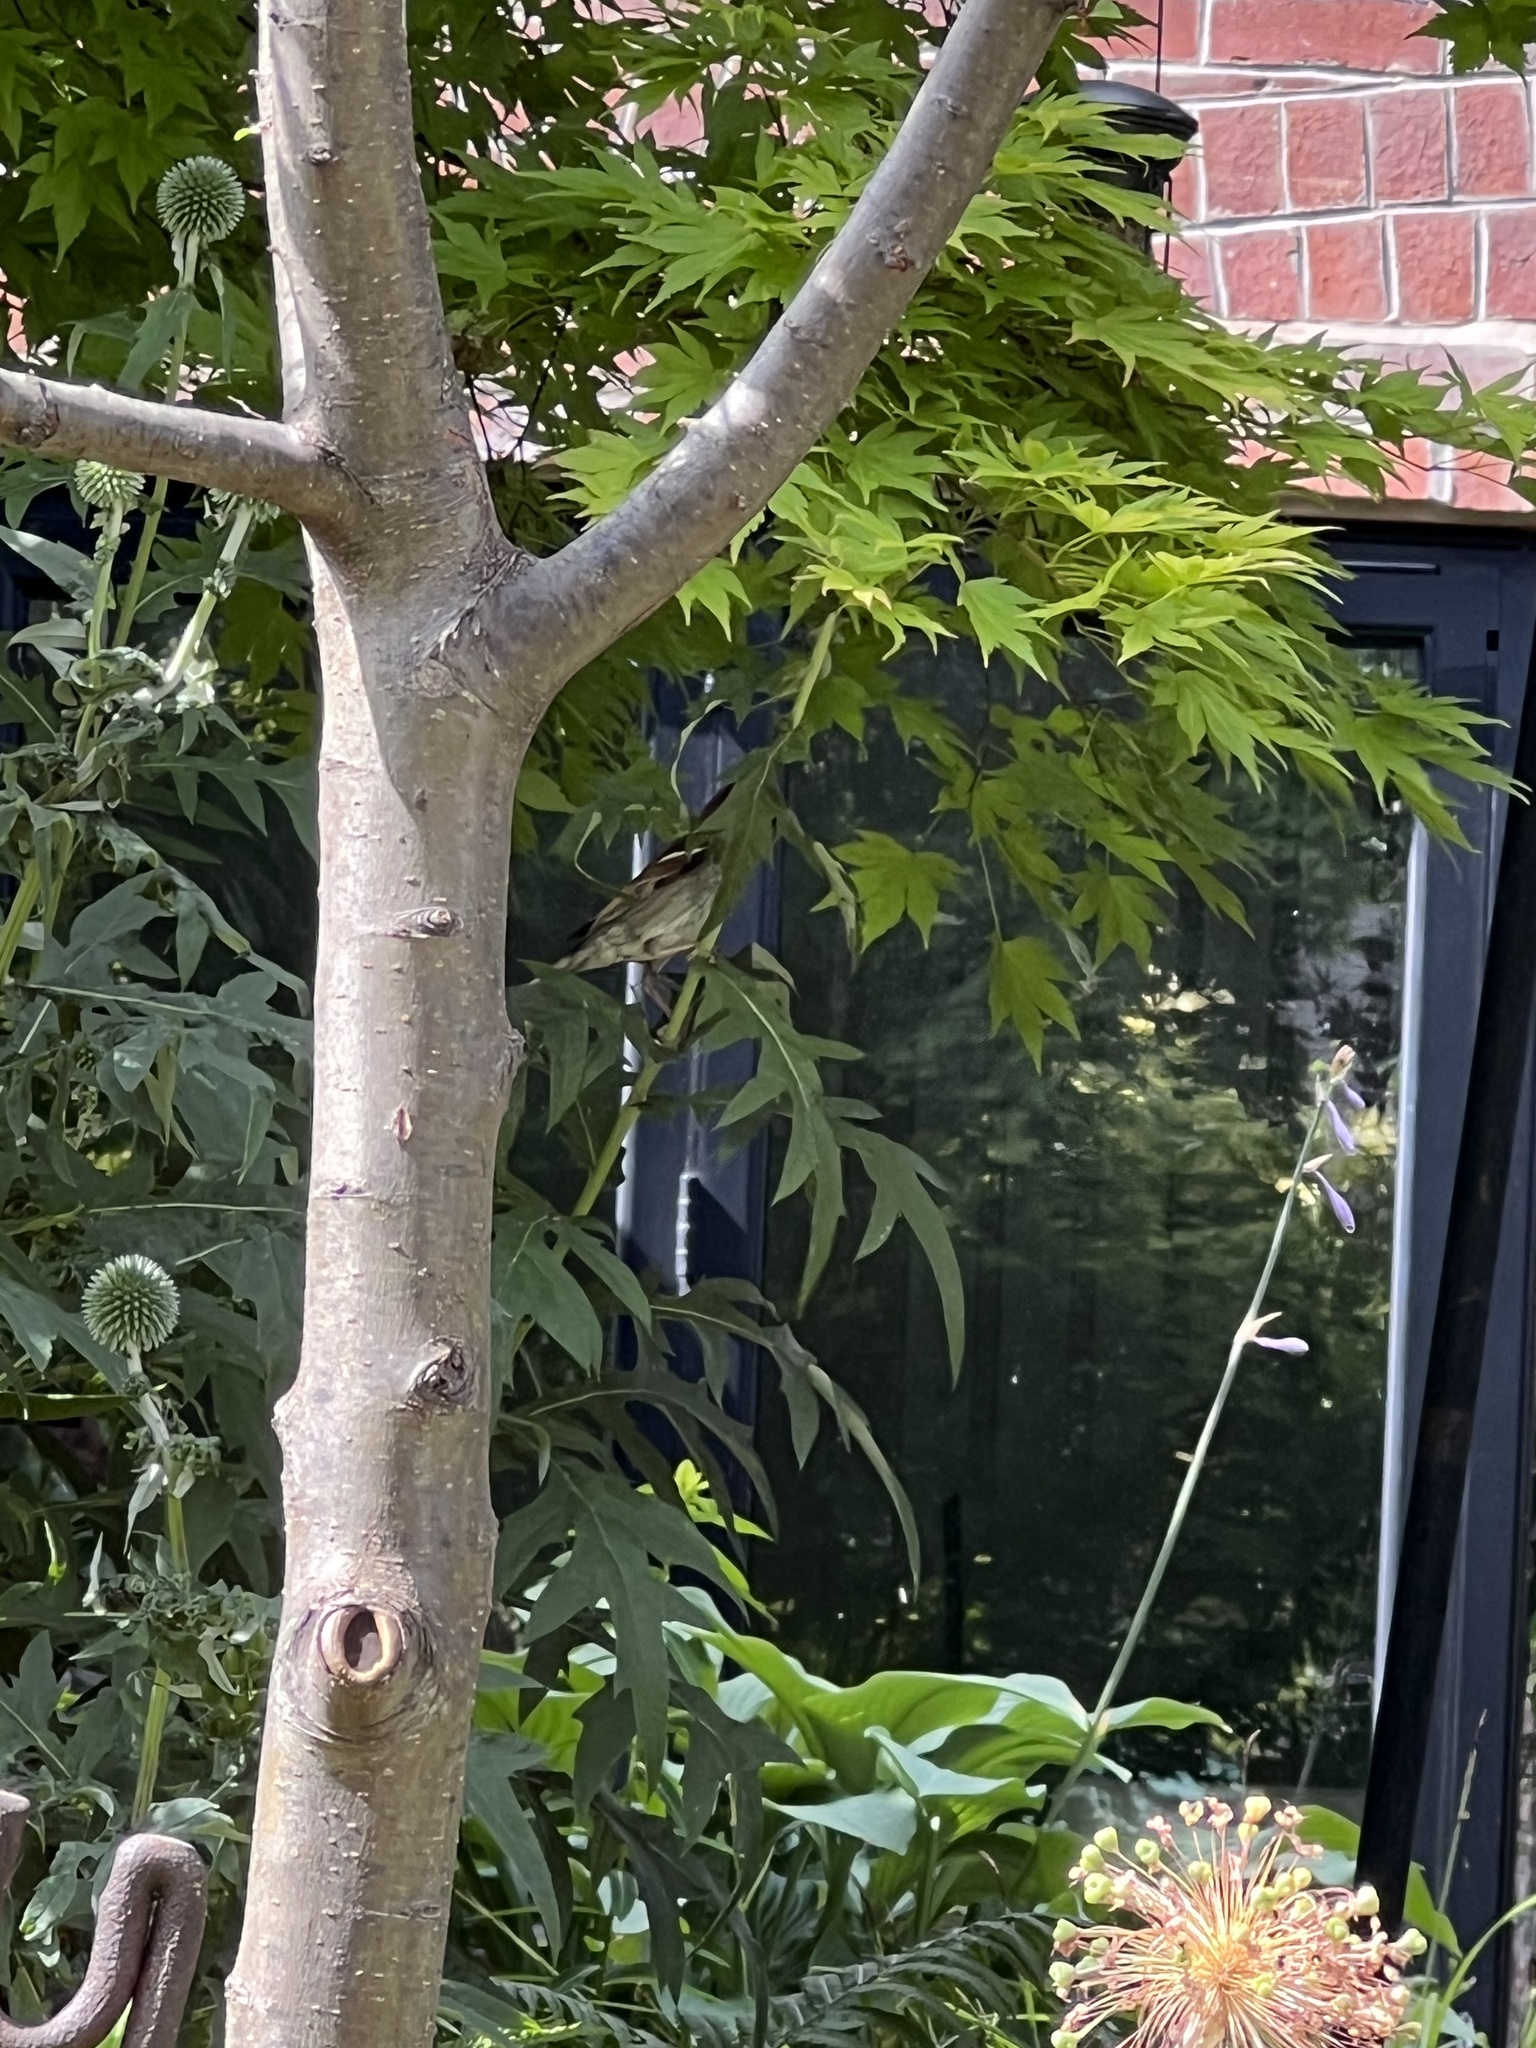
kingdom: Animalia
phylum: Chordata
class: Aves
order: Passeriformes
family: Passeridae
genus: Passer
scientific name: Passer domesticus
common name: House sparrow
